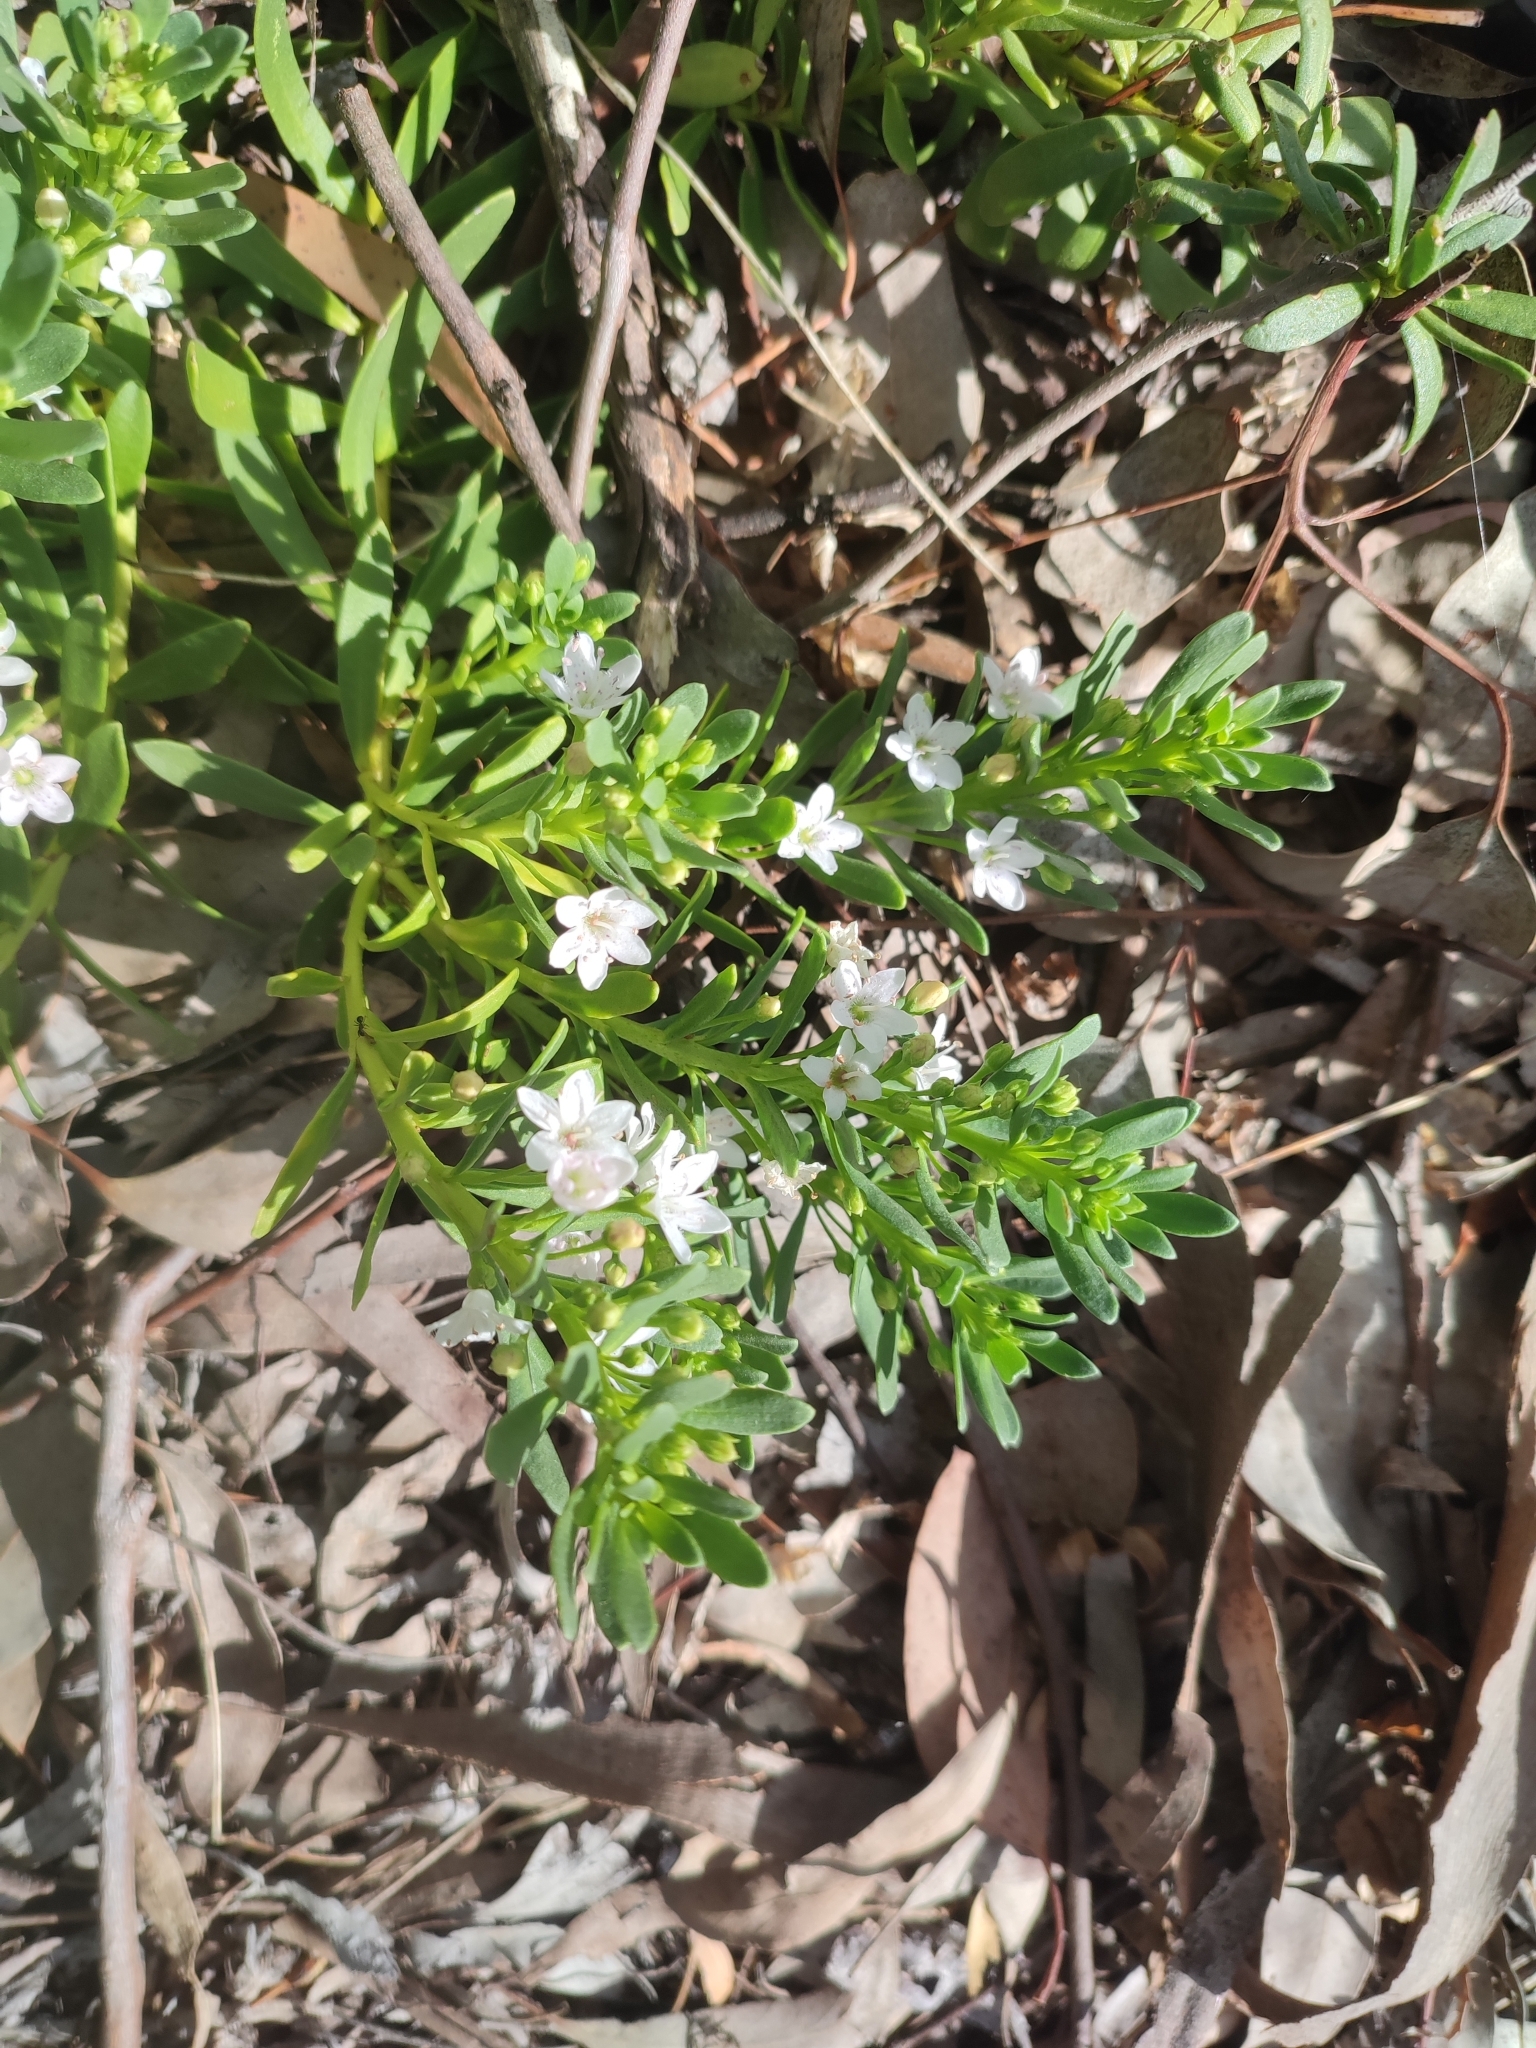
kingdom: Plantae
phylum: Tracheophyta
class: Magnoliopsida
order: Lamiales
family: Scrophulariaceae
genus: Myoporum
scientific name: Myoporum parvifolium
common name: Dwarf native-myrtle
